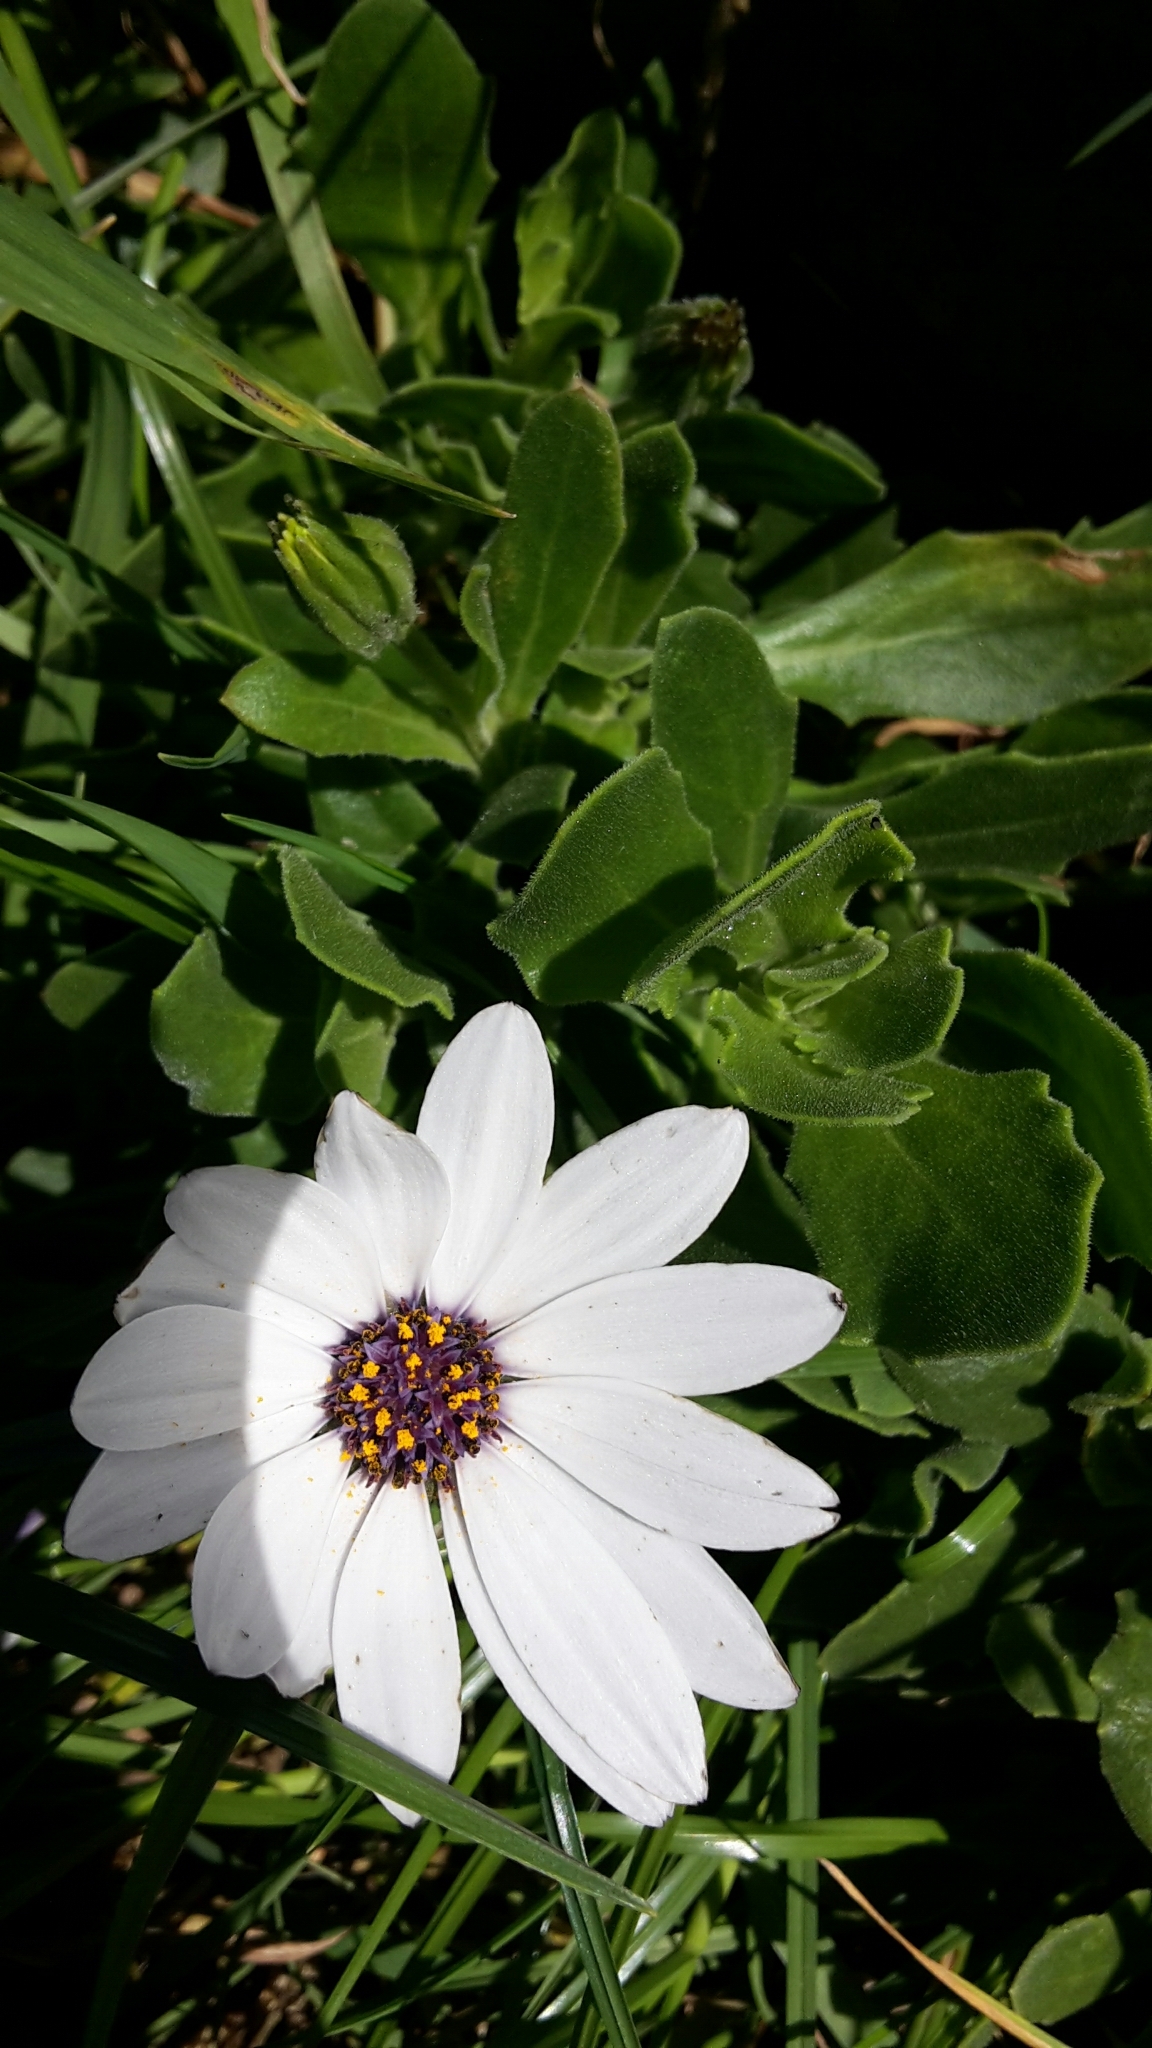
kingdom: Plantae
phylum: Tracheophyta
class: Magnoliopsida
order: Asterales
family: Asteraceae
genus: Dimorphotheca
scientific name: Dimorphotheca fruticosa
